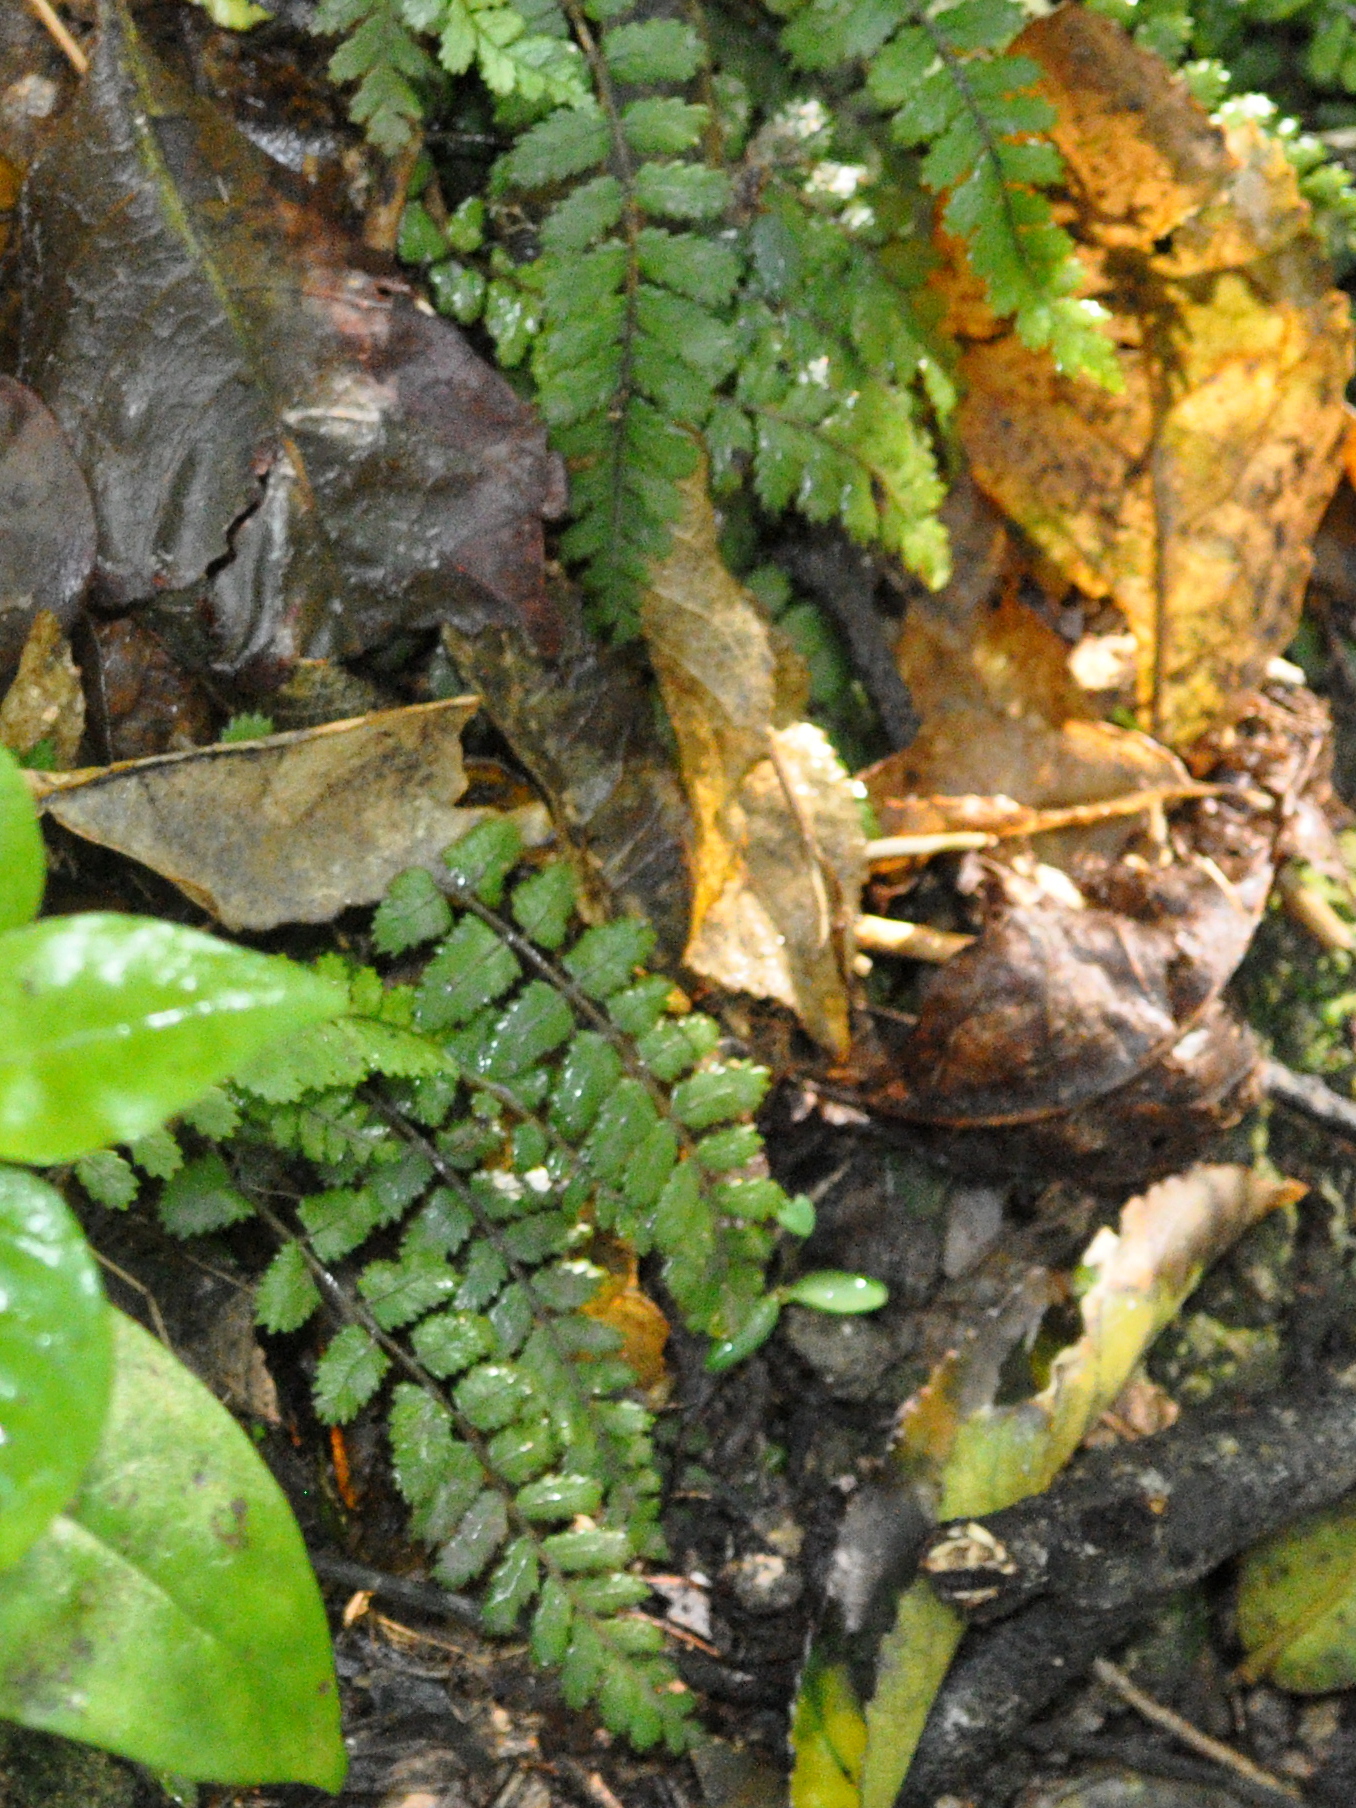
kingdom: Plantae
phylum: Tracheophyta
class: Polypodiopsida
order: Polypodiales
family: Blechnaceae
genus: Icarus
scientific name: Icarus filiformis
